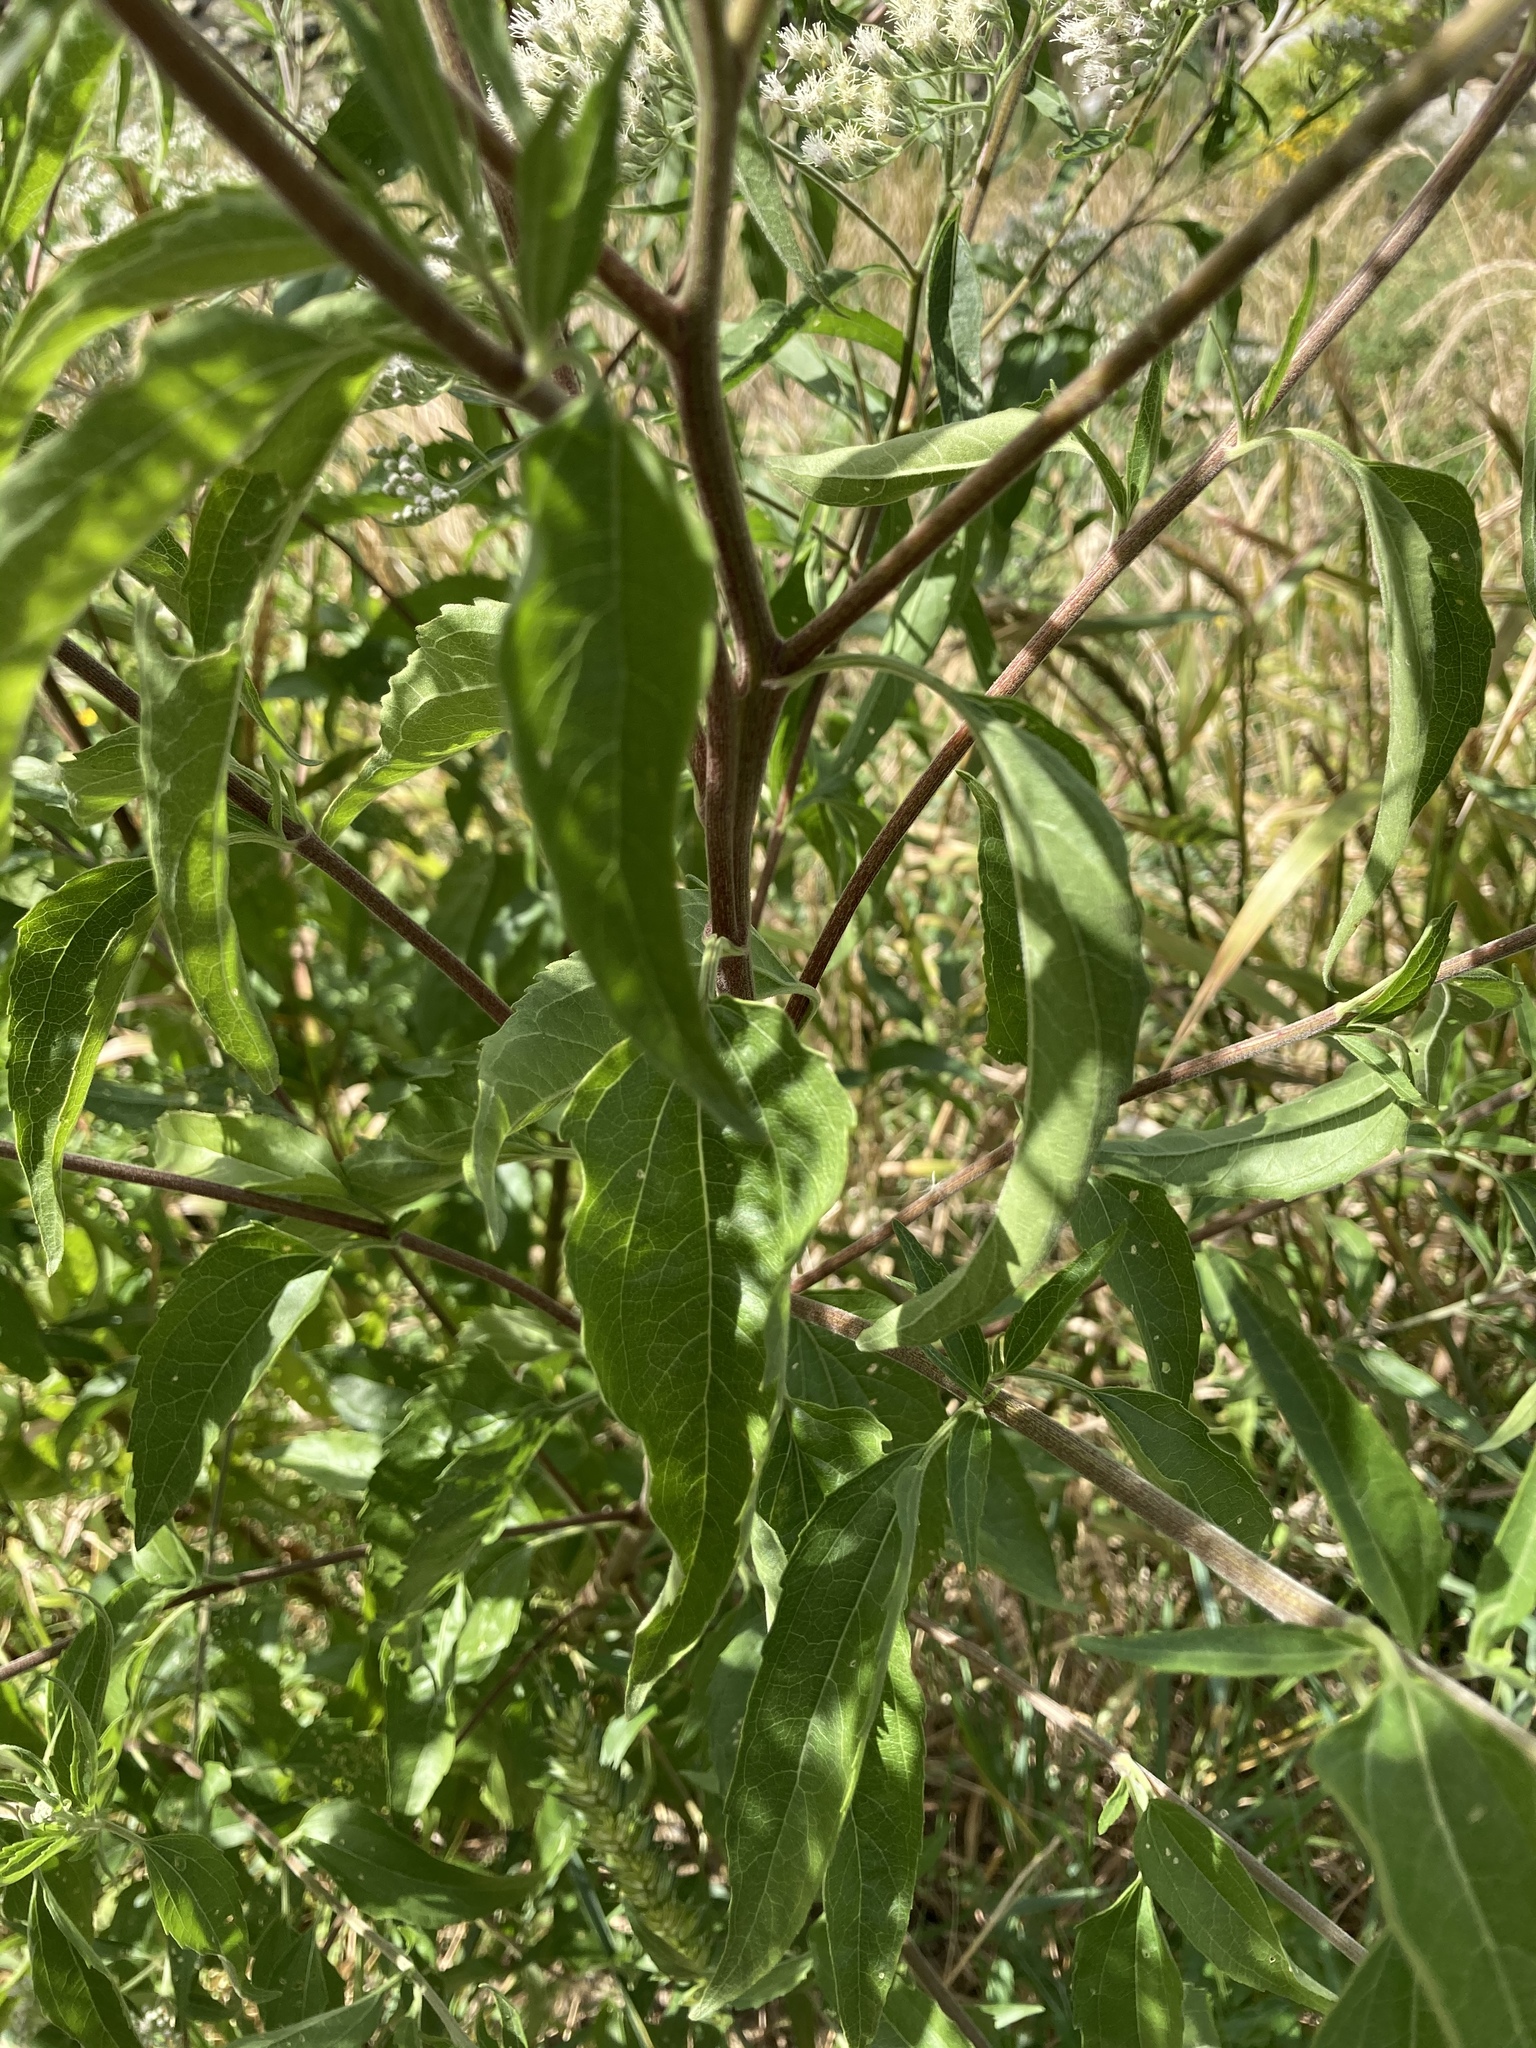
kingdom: Plantae
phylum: Tracheophyta
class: Magnoliopsida
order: Asterales
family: Asteraceae
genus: Eupatorium
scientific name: Eupatorium serotinum
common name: Late boneset
